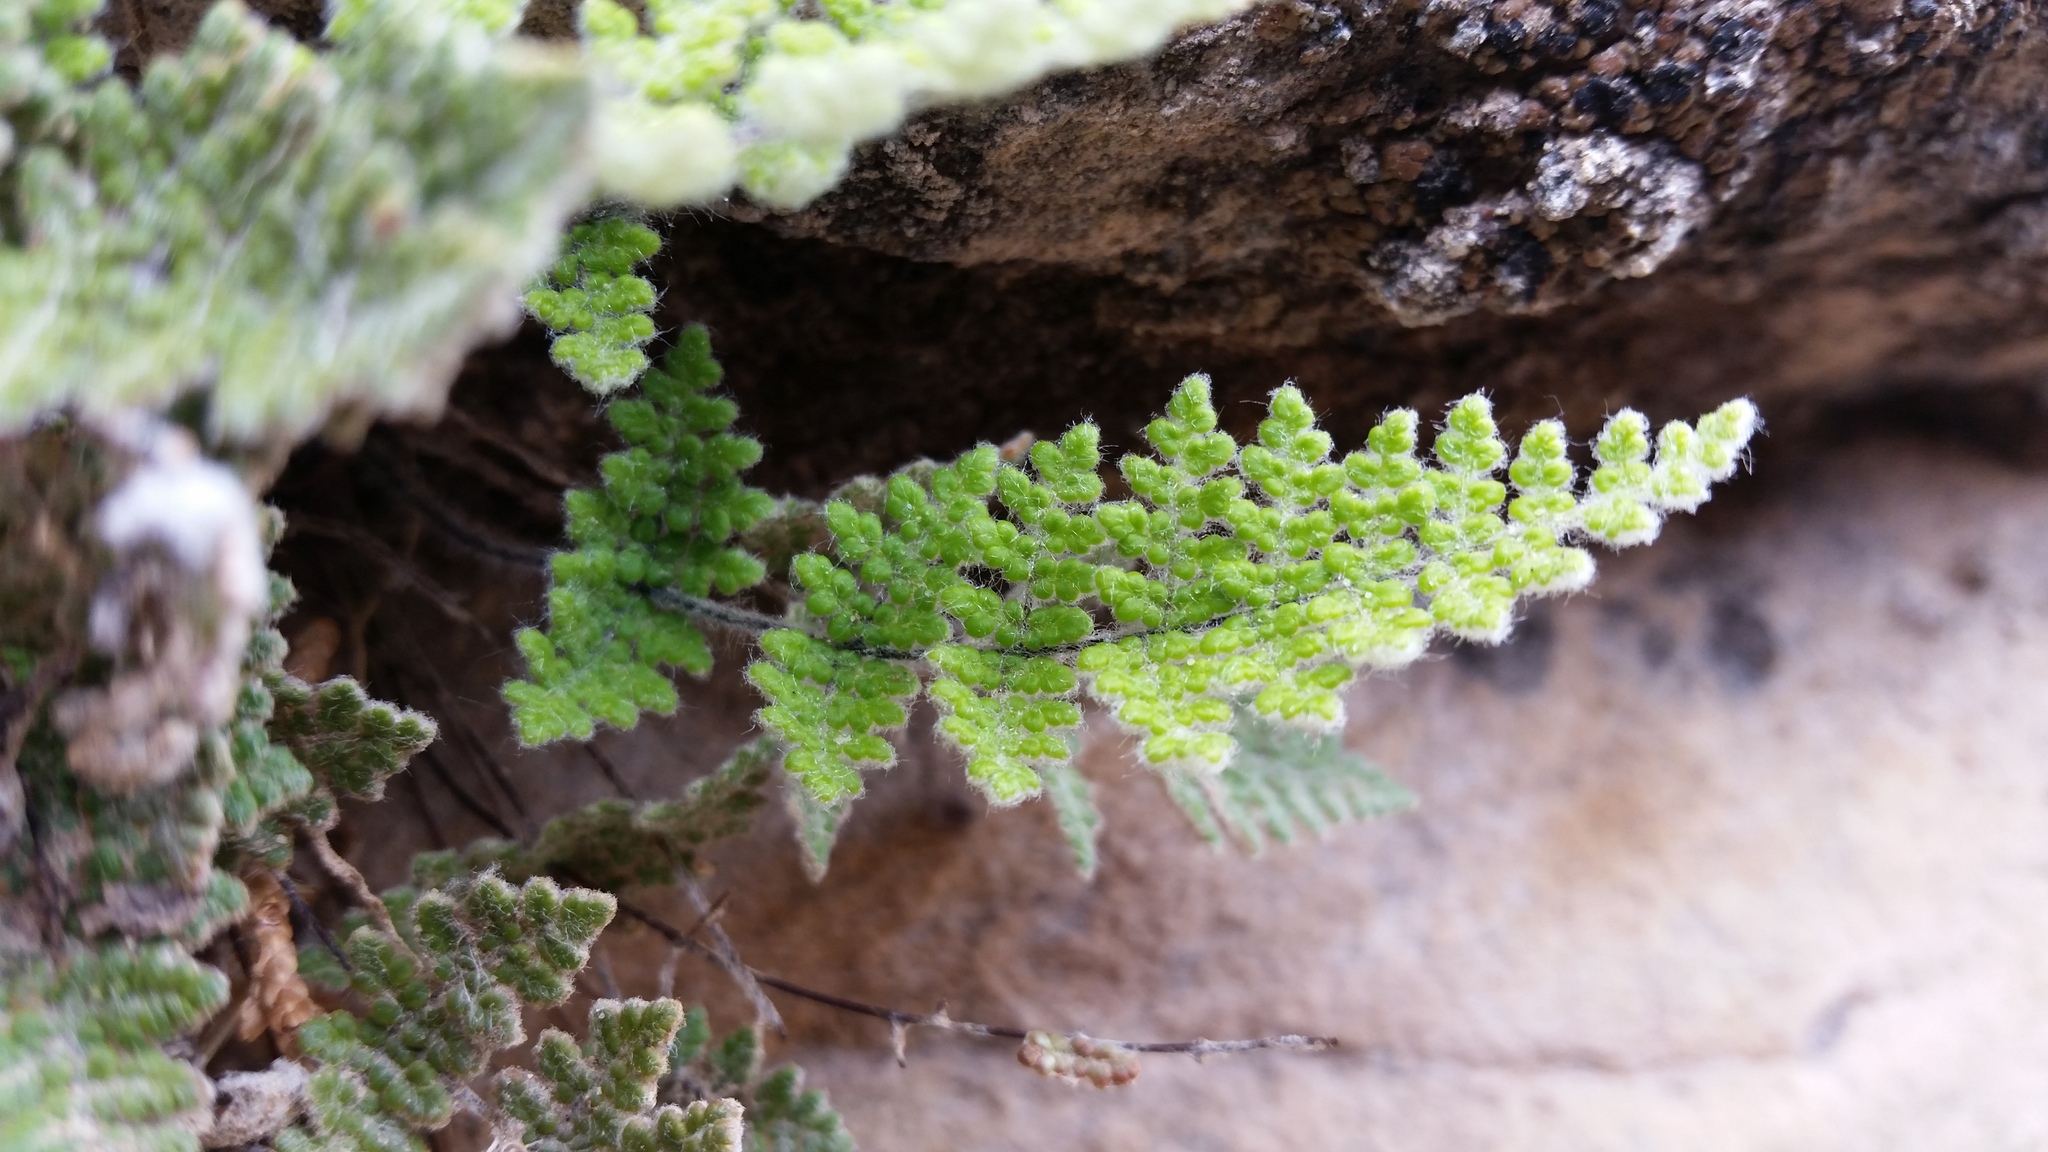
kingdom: Plantae
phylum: Tracheophyta
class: Polypodiopsida
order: Polypodiales
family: Pteridaceae
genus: Myriopteris
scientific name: Myriopteris gracilis
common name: Fee's lip fern
